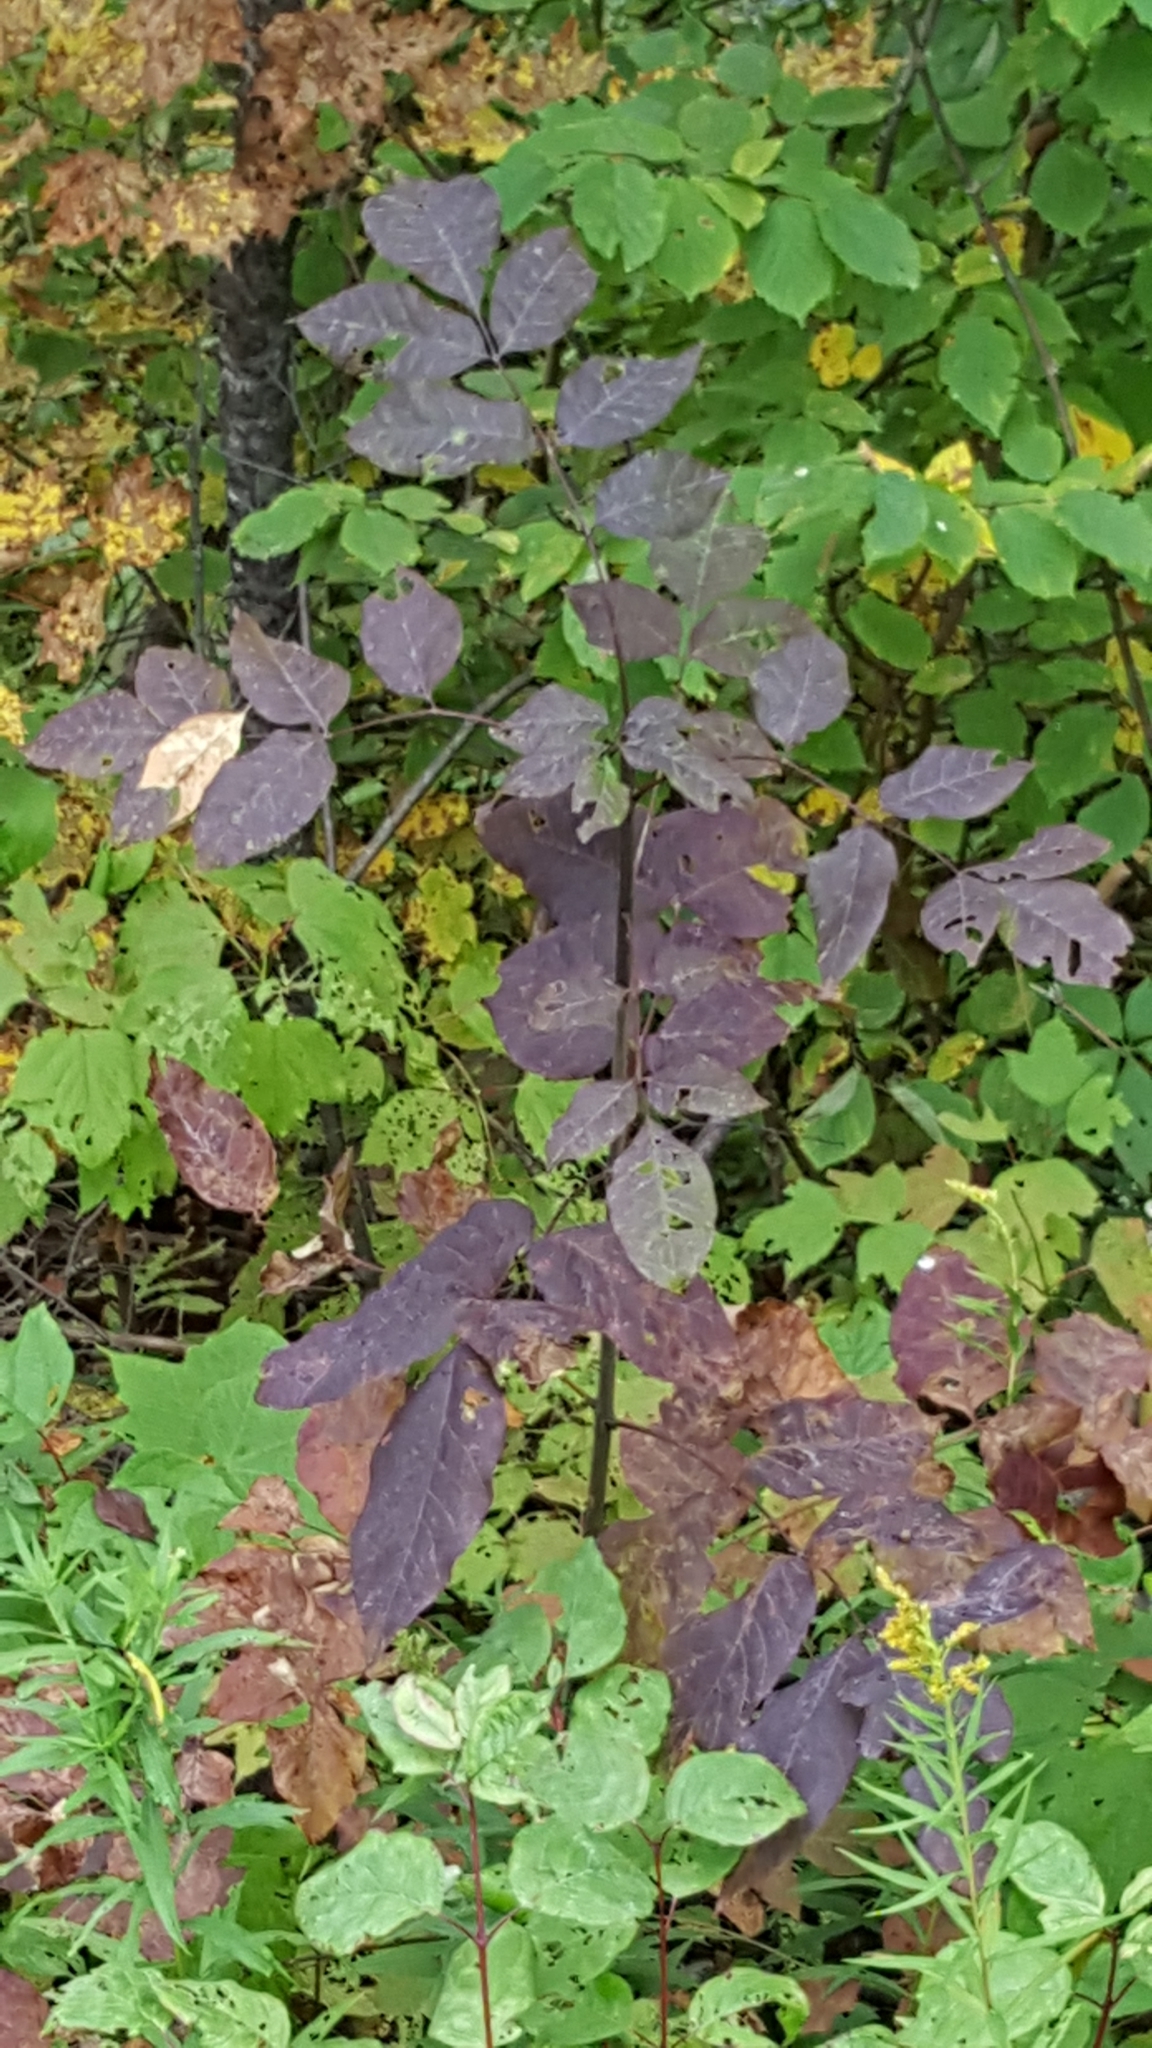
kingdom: Plantae
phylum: Tracheophyta
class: Magnoliopsida
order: Lamiales
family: Oleaceae
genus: Fraxinus
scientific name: Fraxinus americana
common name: White ash
